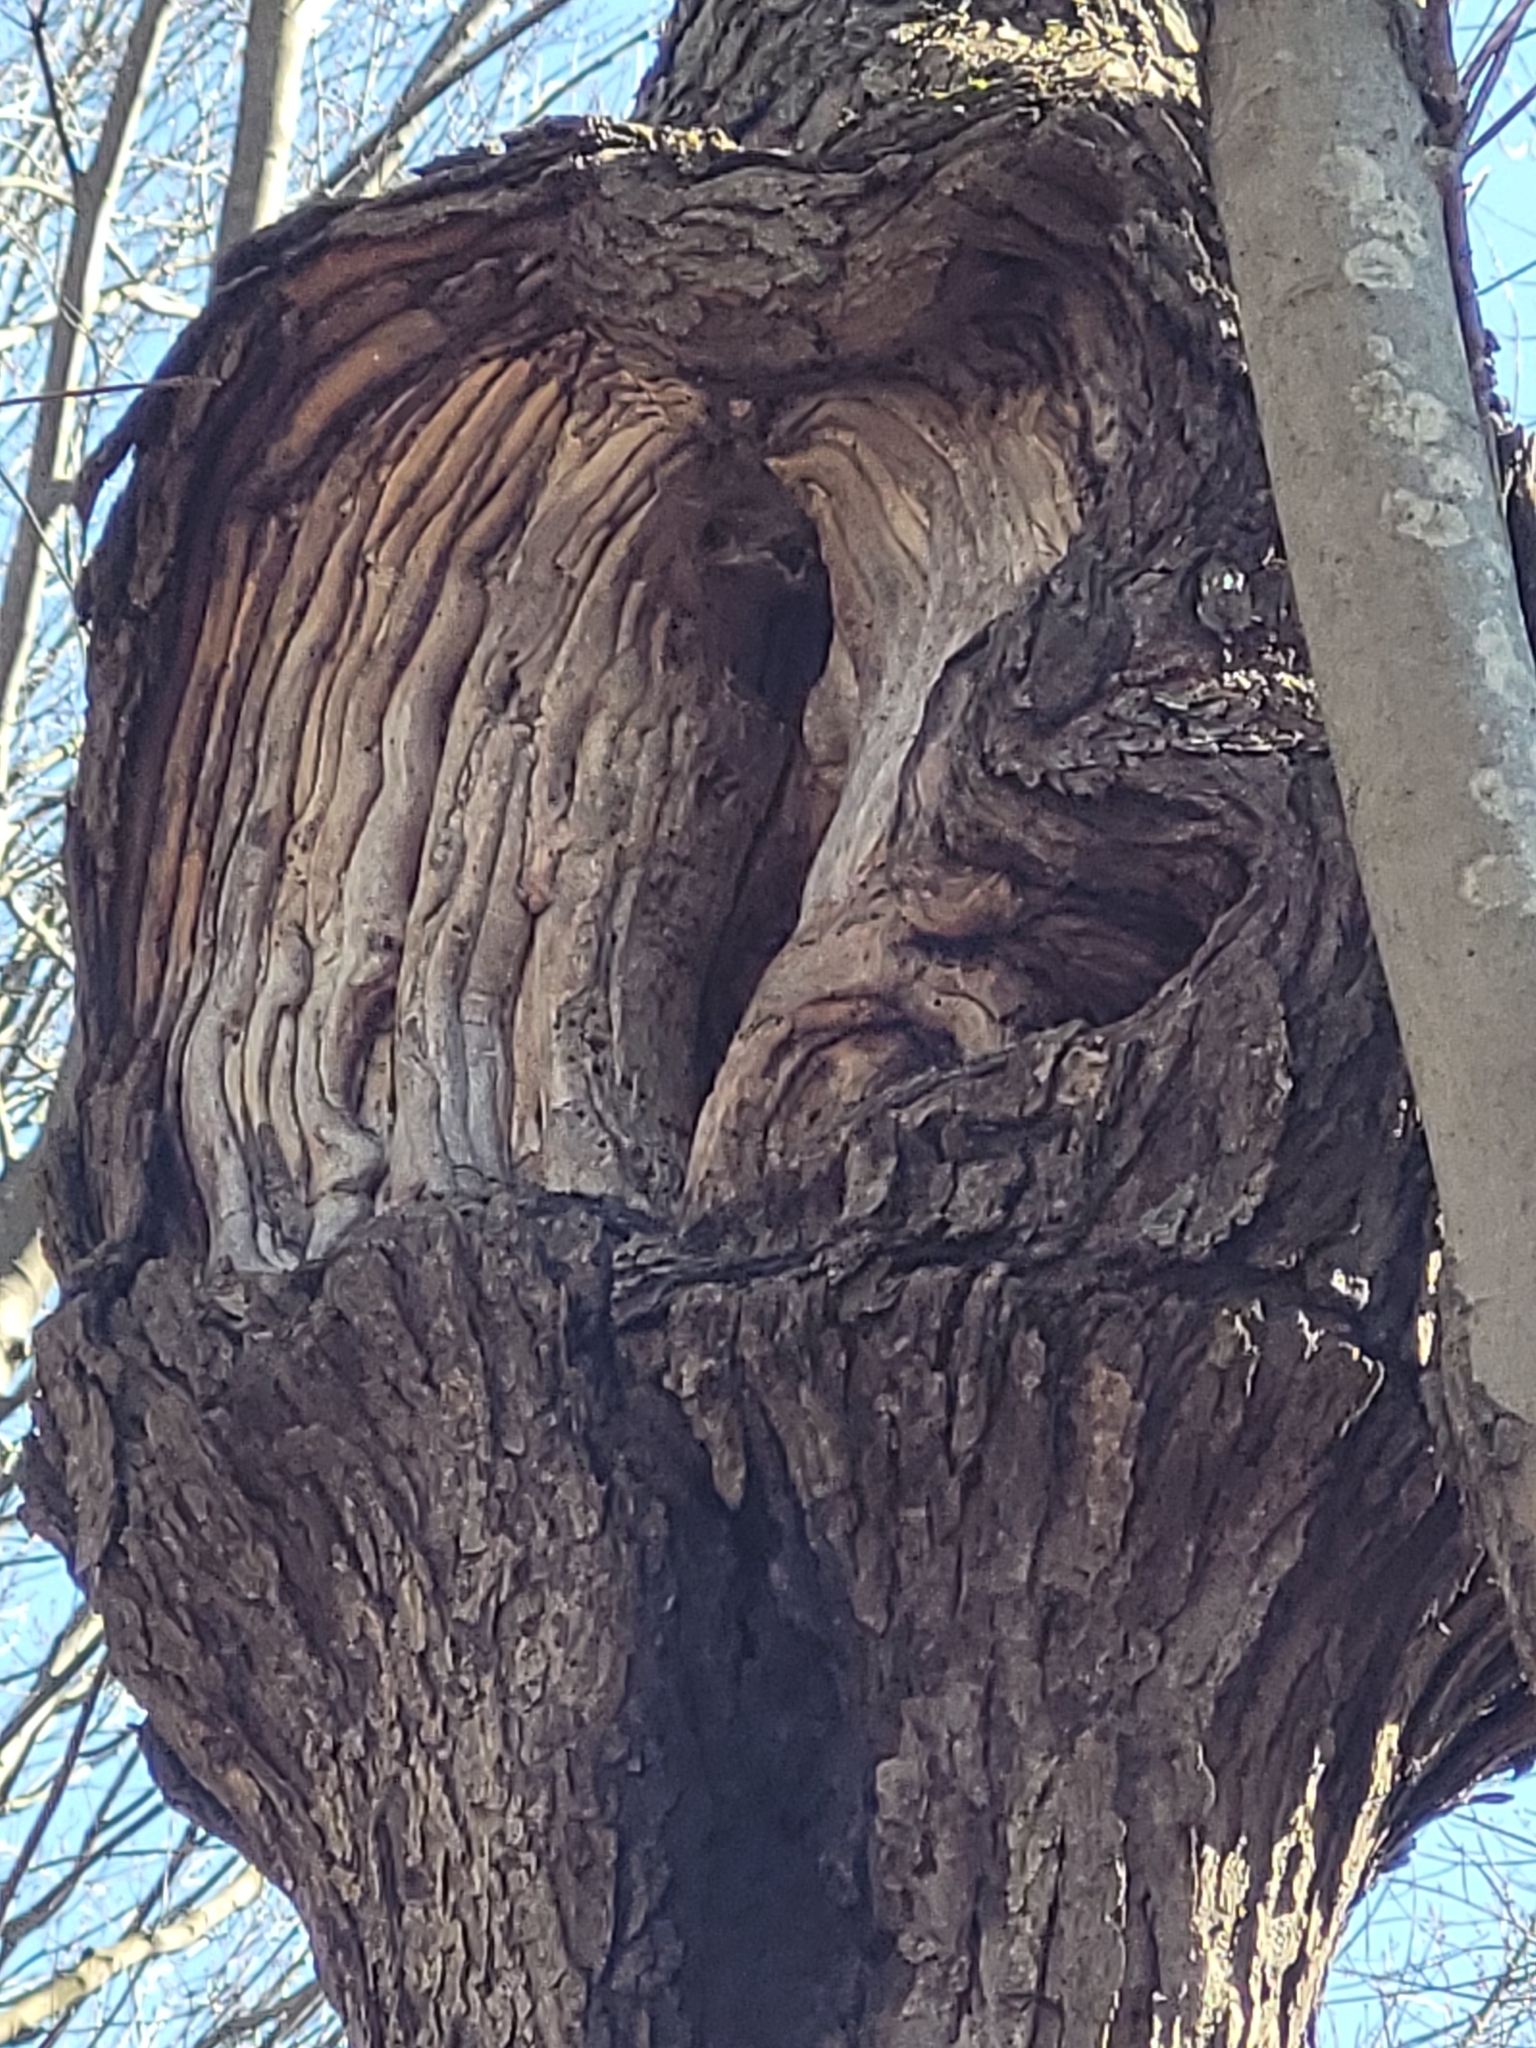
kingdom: Fungi
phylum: Ascomycota
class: Sordariomycetes
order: Hypocreales
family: Nectriaceae
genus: Neonectria
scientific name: Neonectria ditissima
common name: Apple canker
